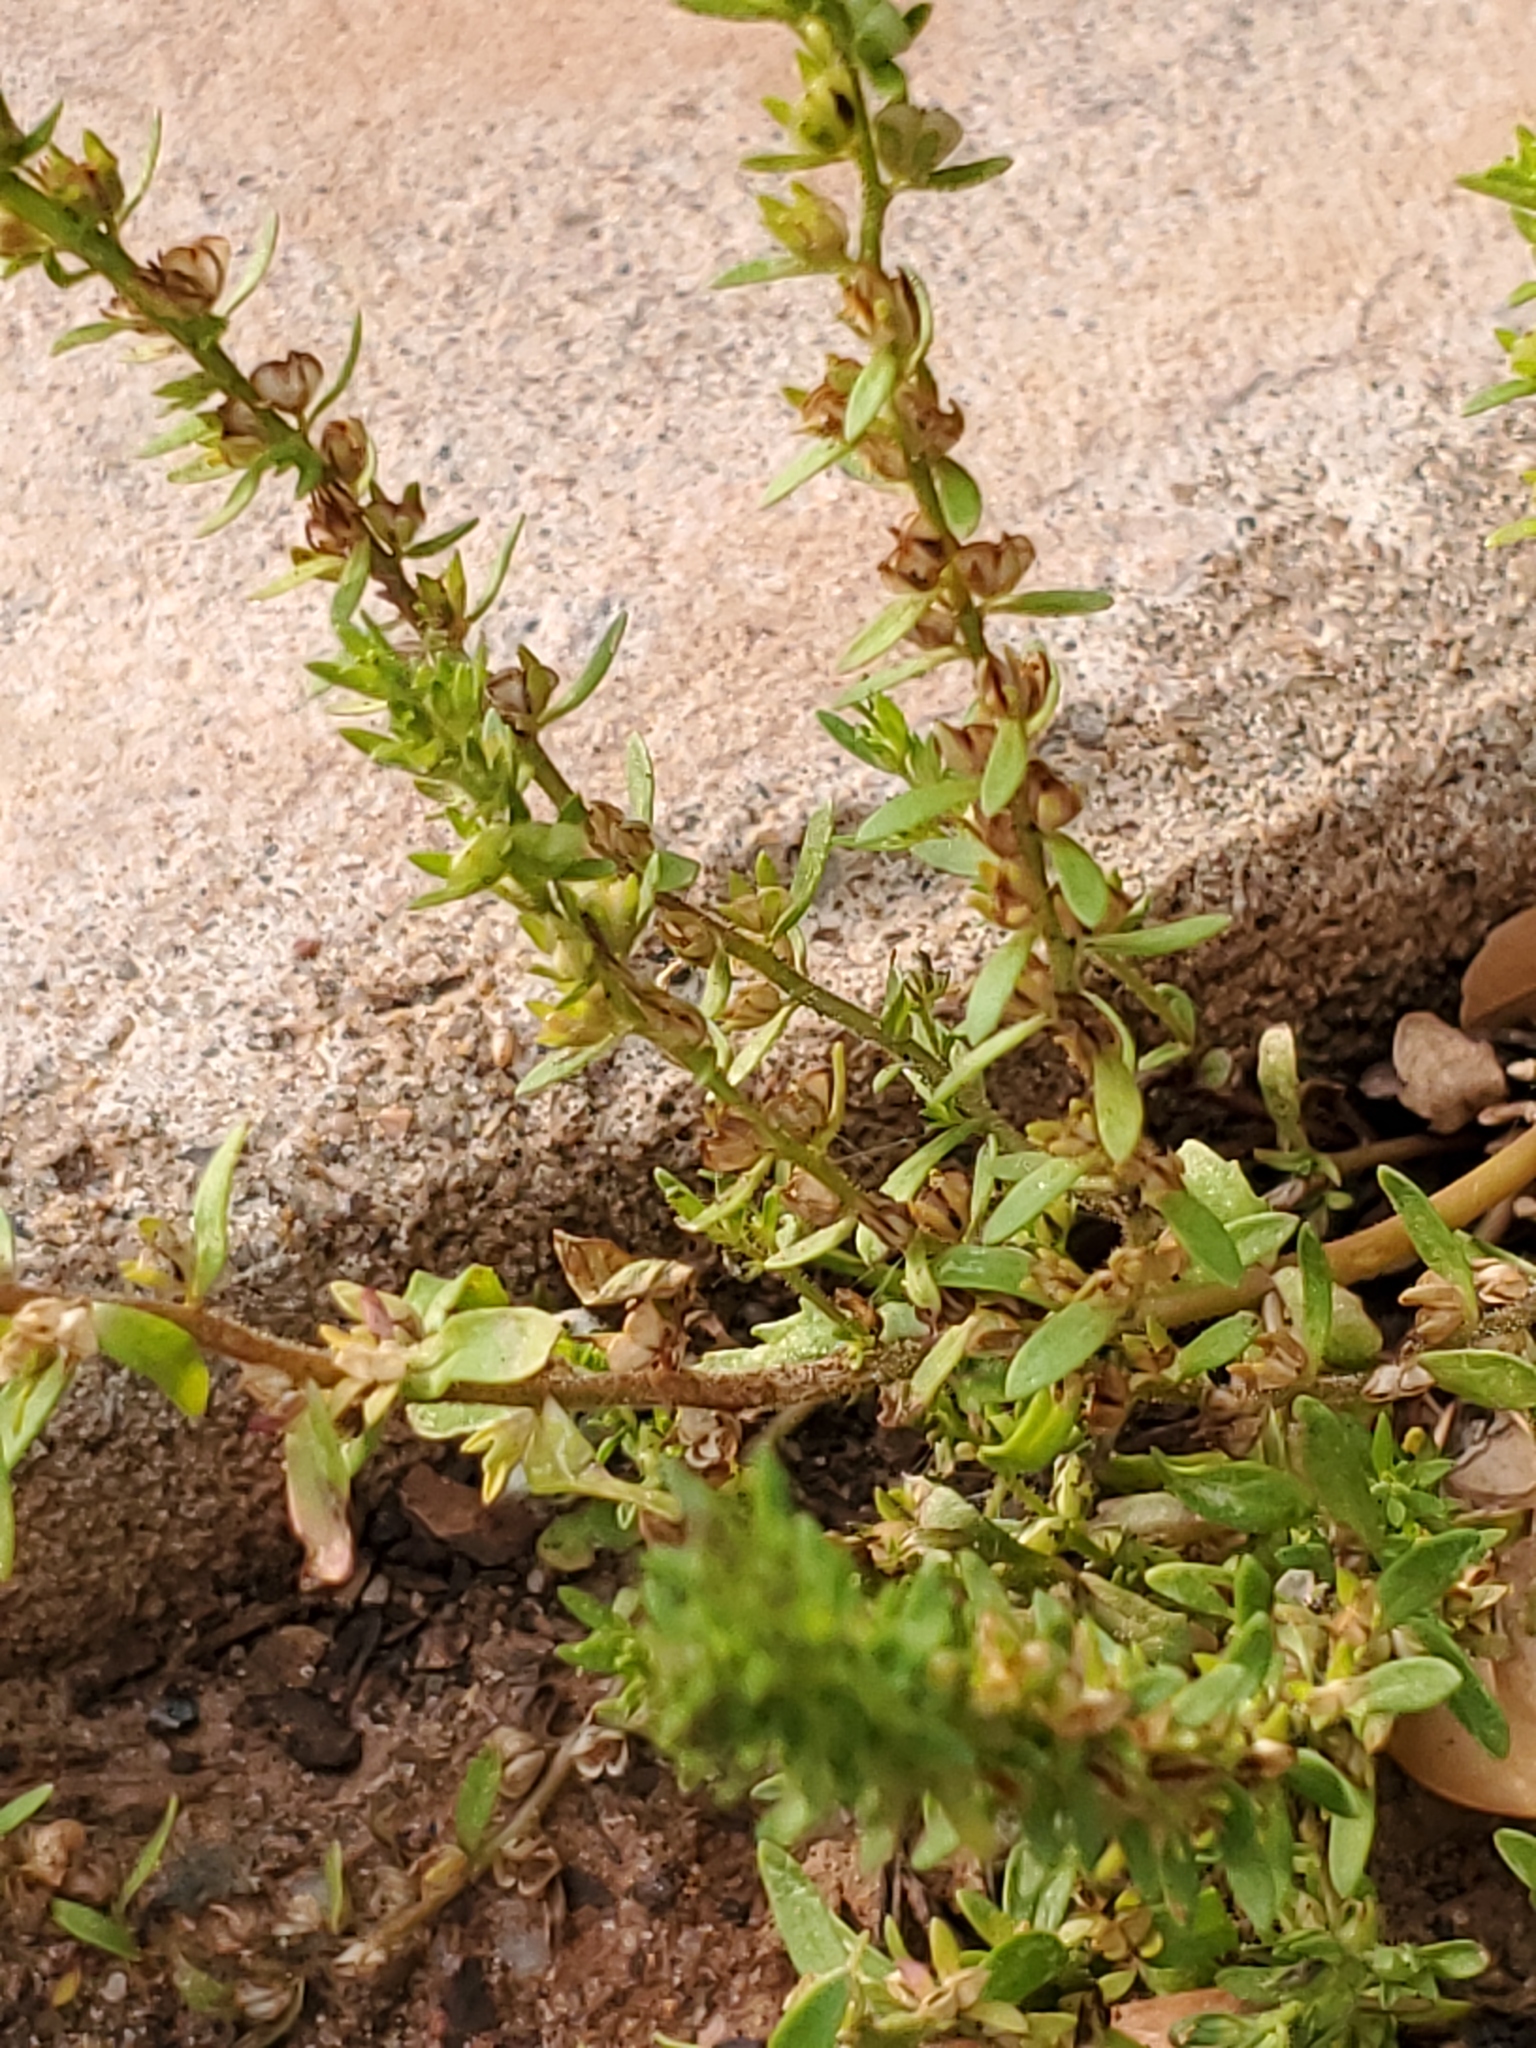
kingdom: Plantae
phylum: Tracheophyta
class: Magnoliopsida
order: Lamiales
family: Plantaginaceae
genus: Veronica
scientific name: Veronica peregrina
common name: Neckweed
